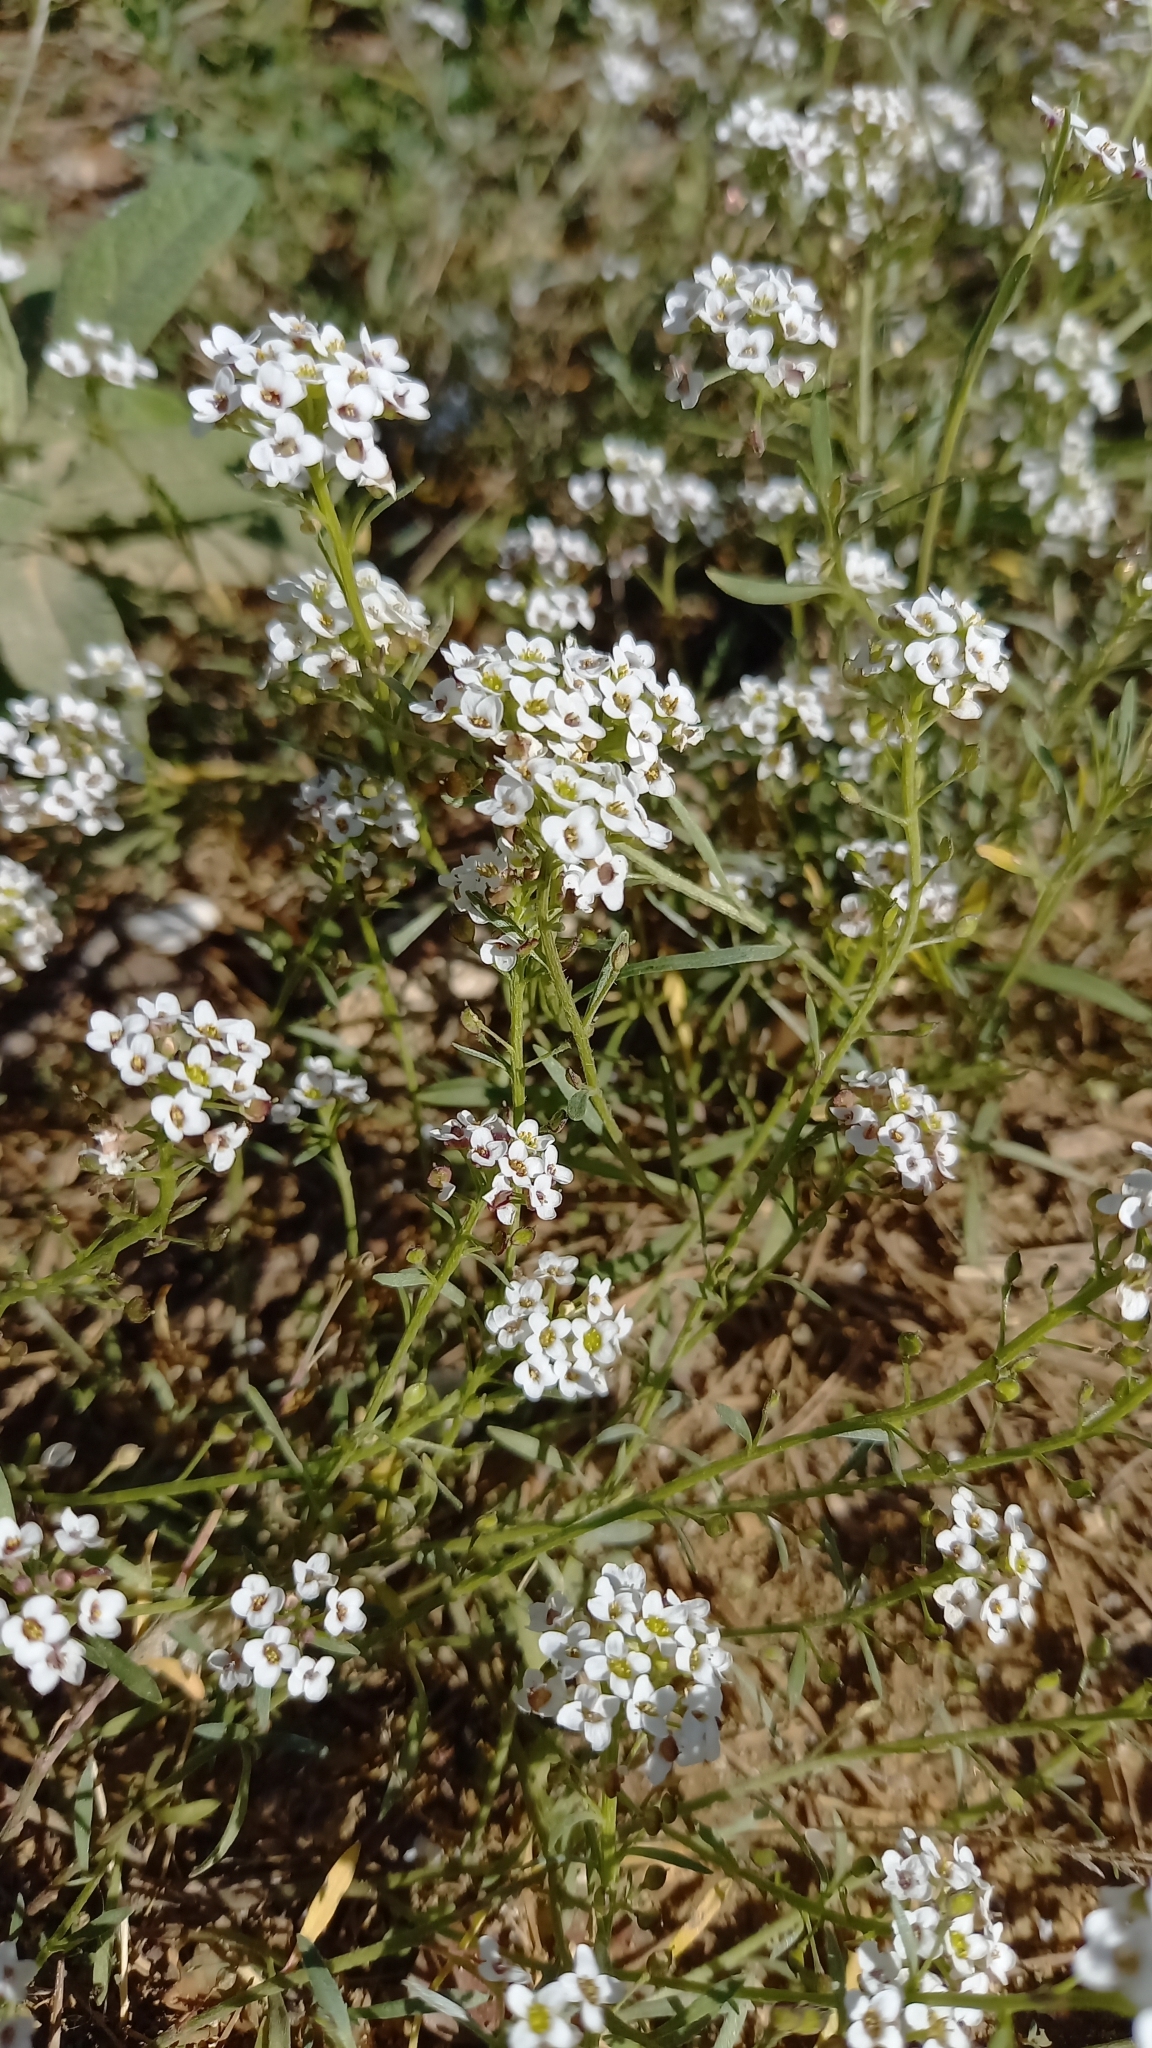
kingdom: Plantae
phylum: Tracheophyta
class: Magnoliopsida
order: Brassicales
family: Brassicaceae
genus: Lobularia
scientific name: Lobularia maritima
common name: Sweet alison
